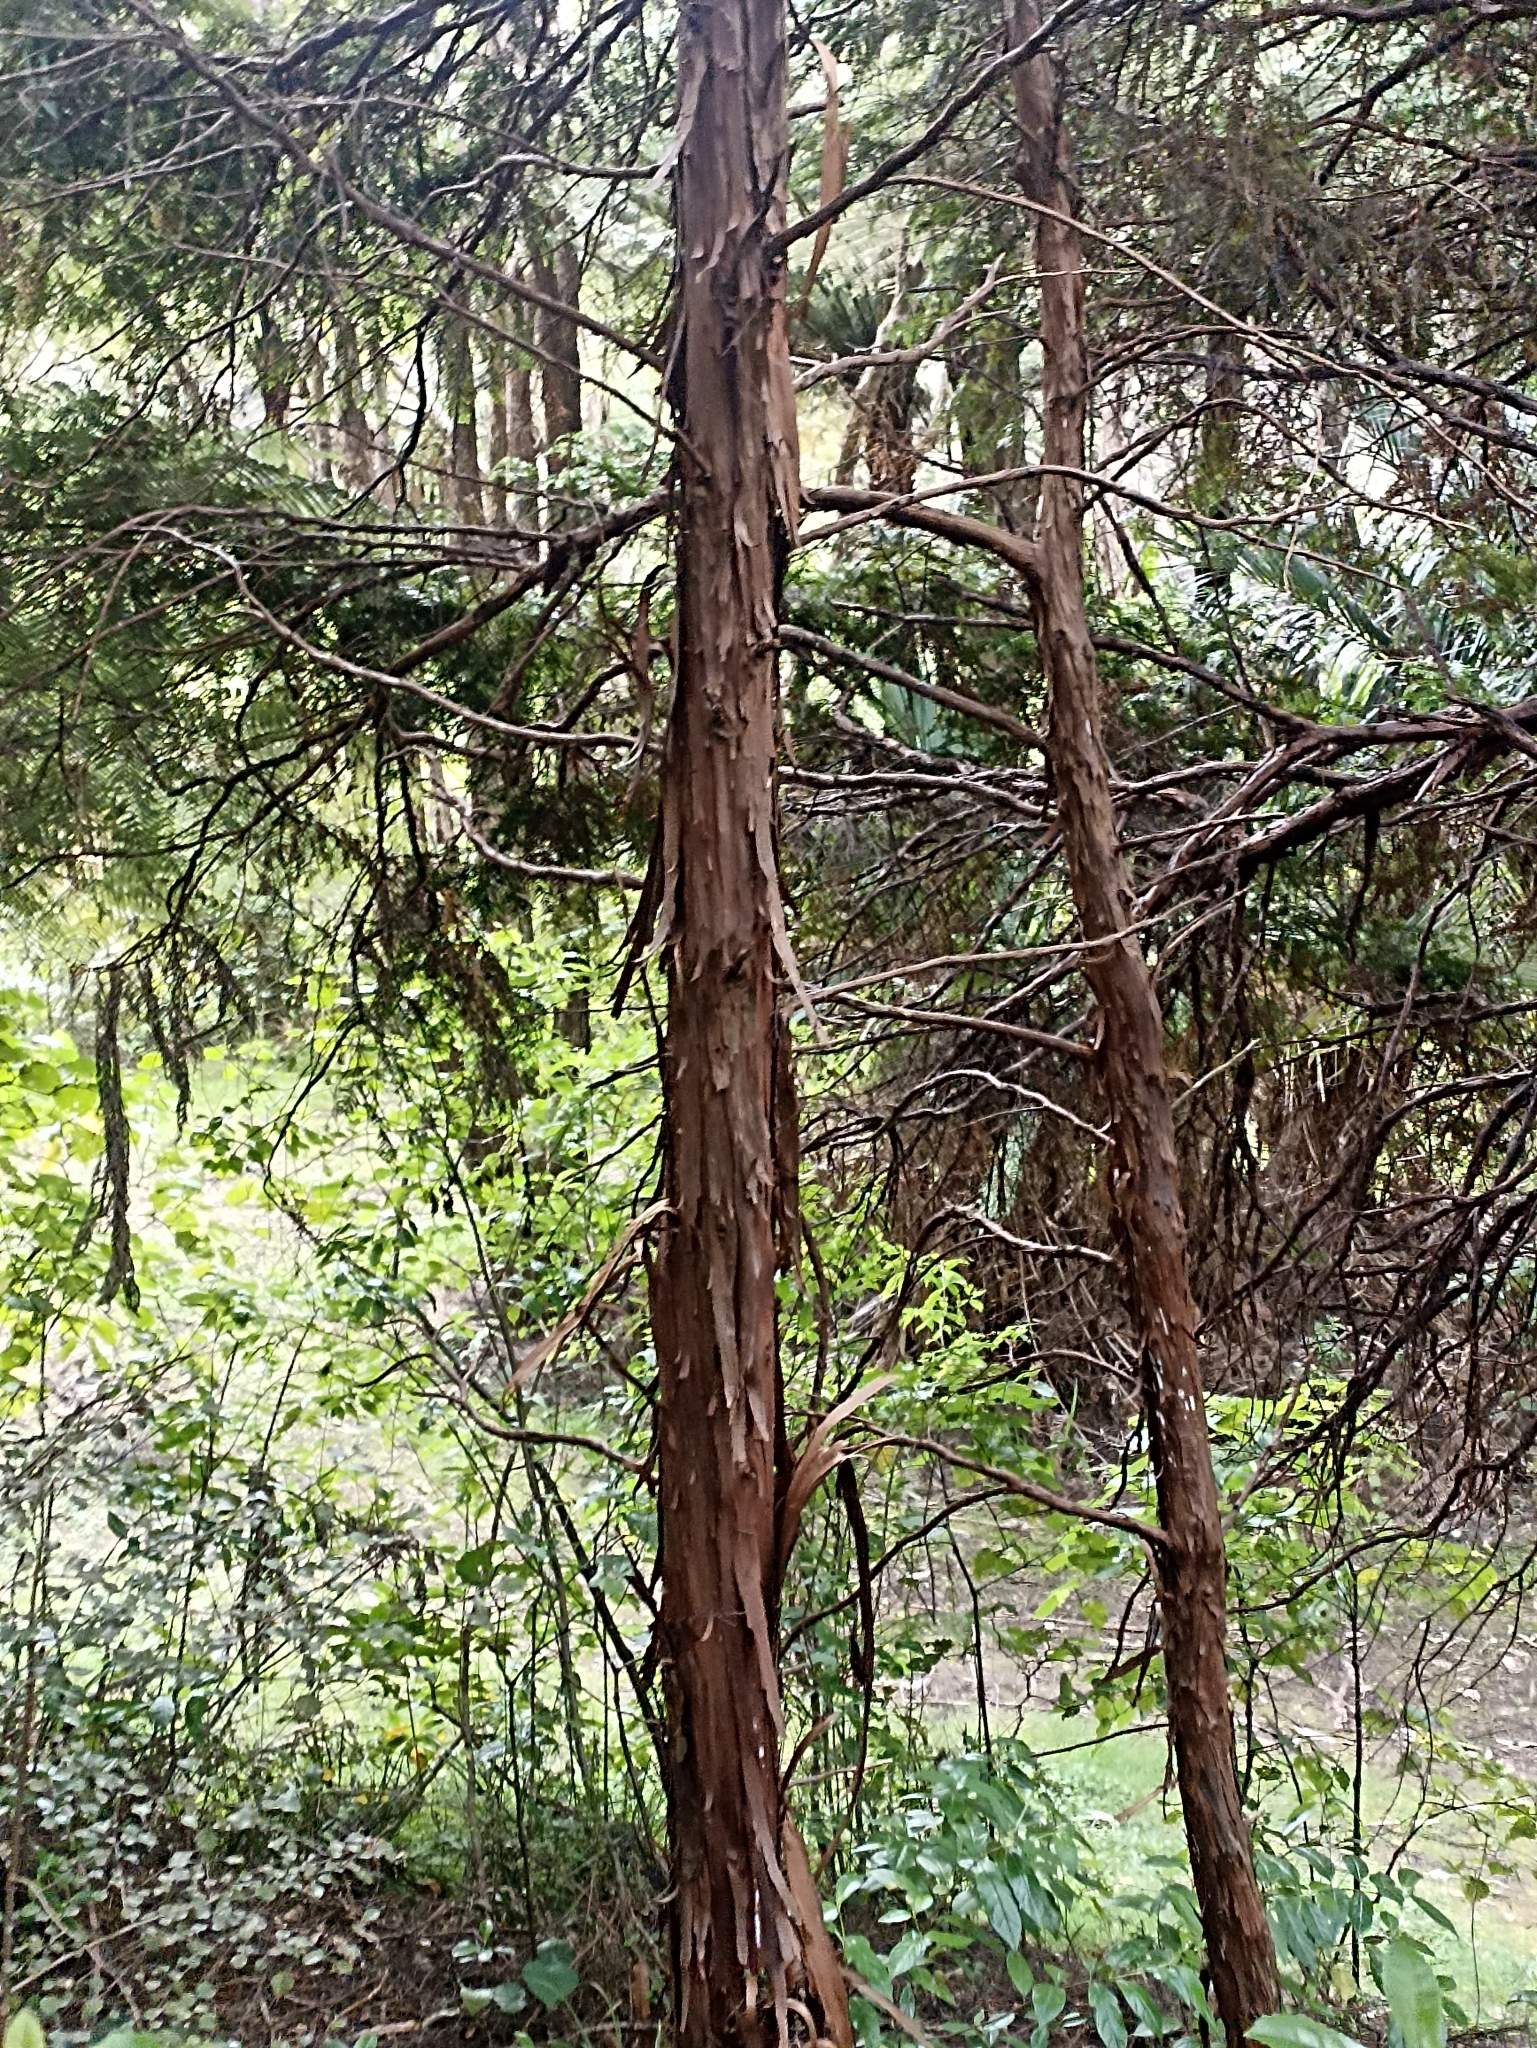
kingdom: Plantae
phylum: Tracheophyta
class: Pinopsida
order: Pinales
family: Cupressaceae
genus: Libocedrus
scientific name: Libocedrus plumosa
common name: New zealand cedar
